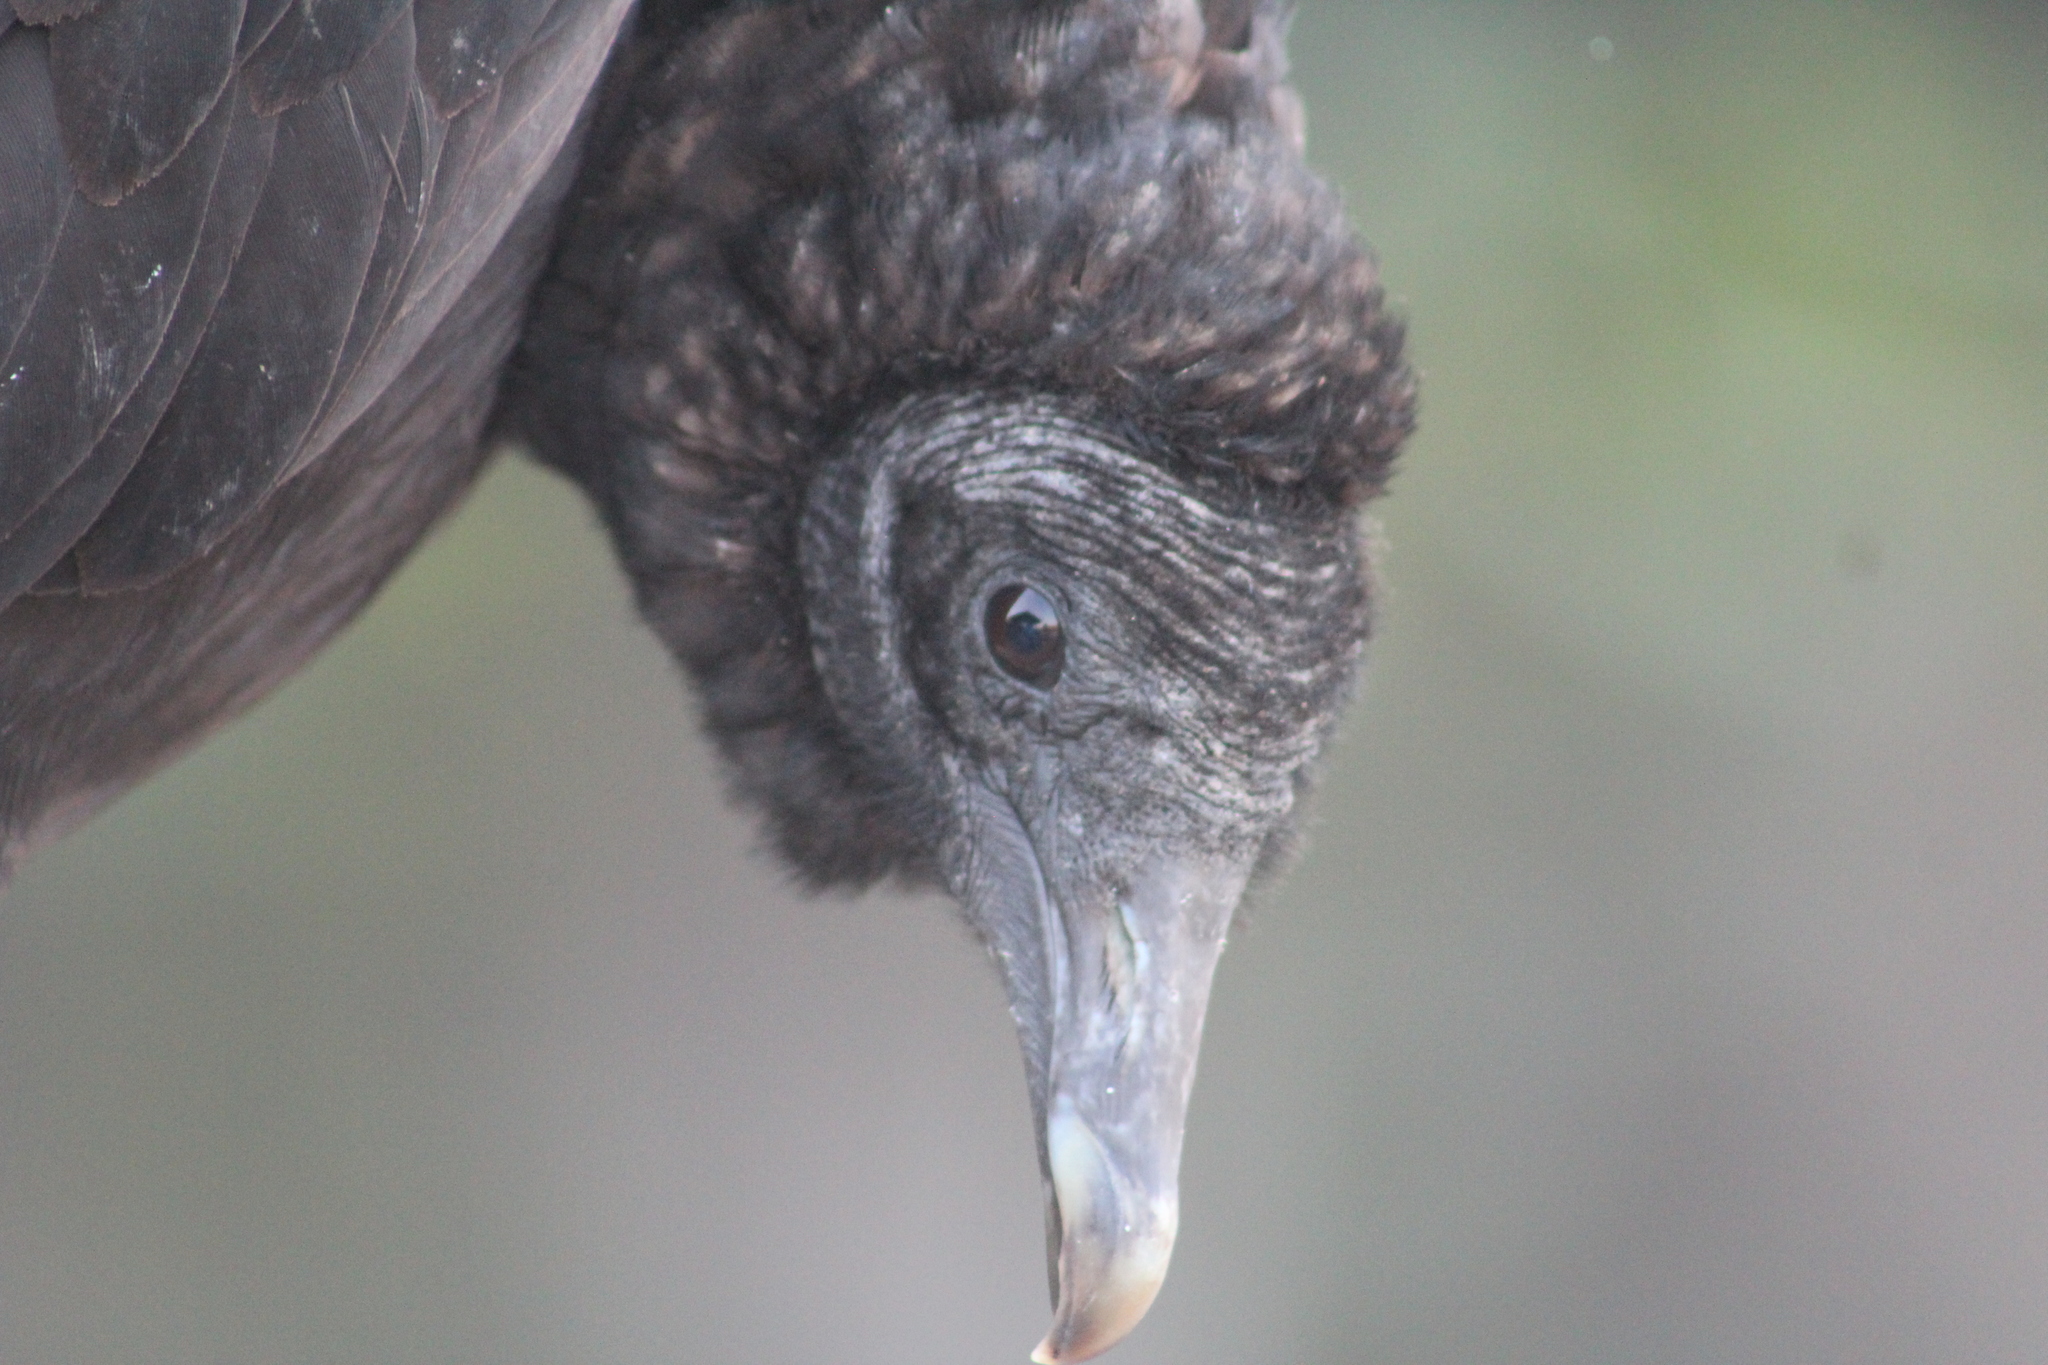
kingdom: Animalia
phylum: Chordata
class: Aves
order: Accipitriformes
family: Cathartidae
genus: Coragyps
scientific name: Coragyps atratus
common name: Black vulture
